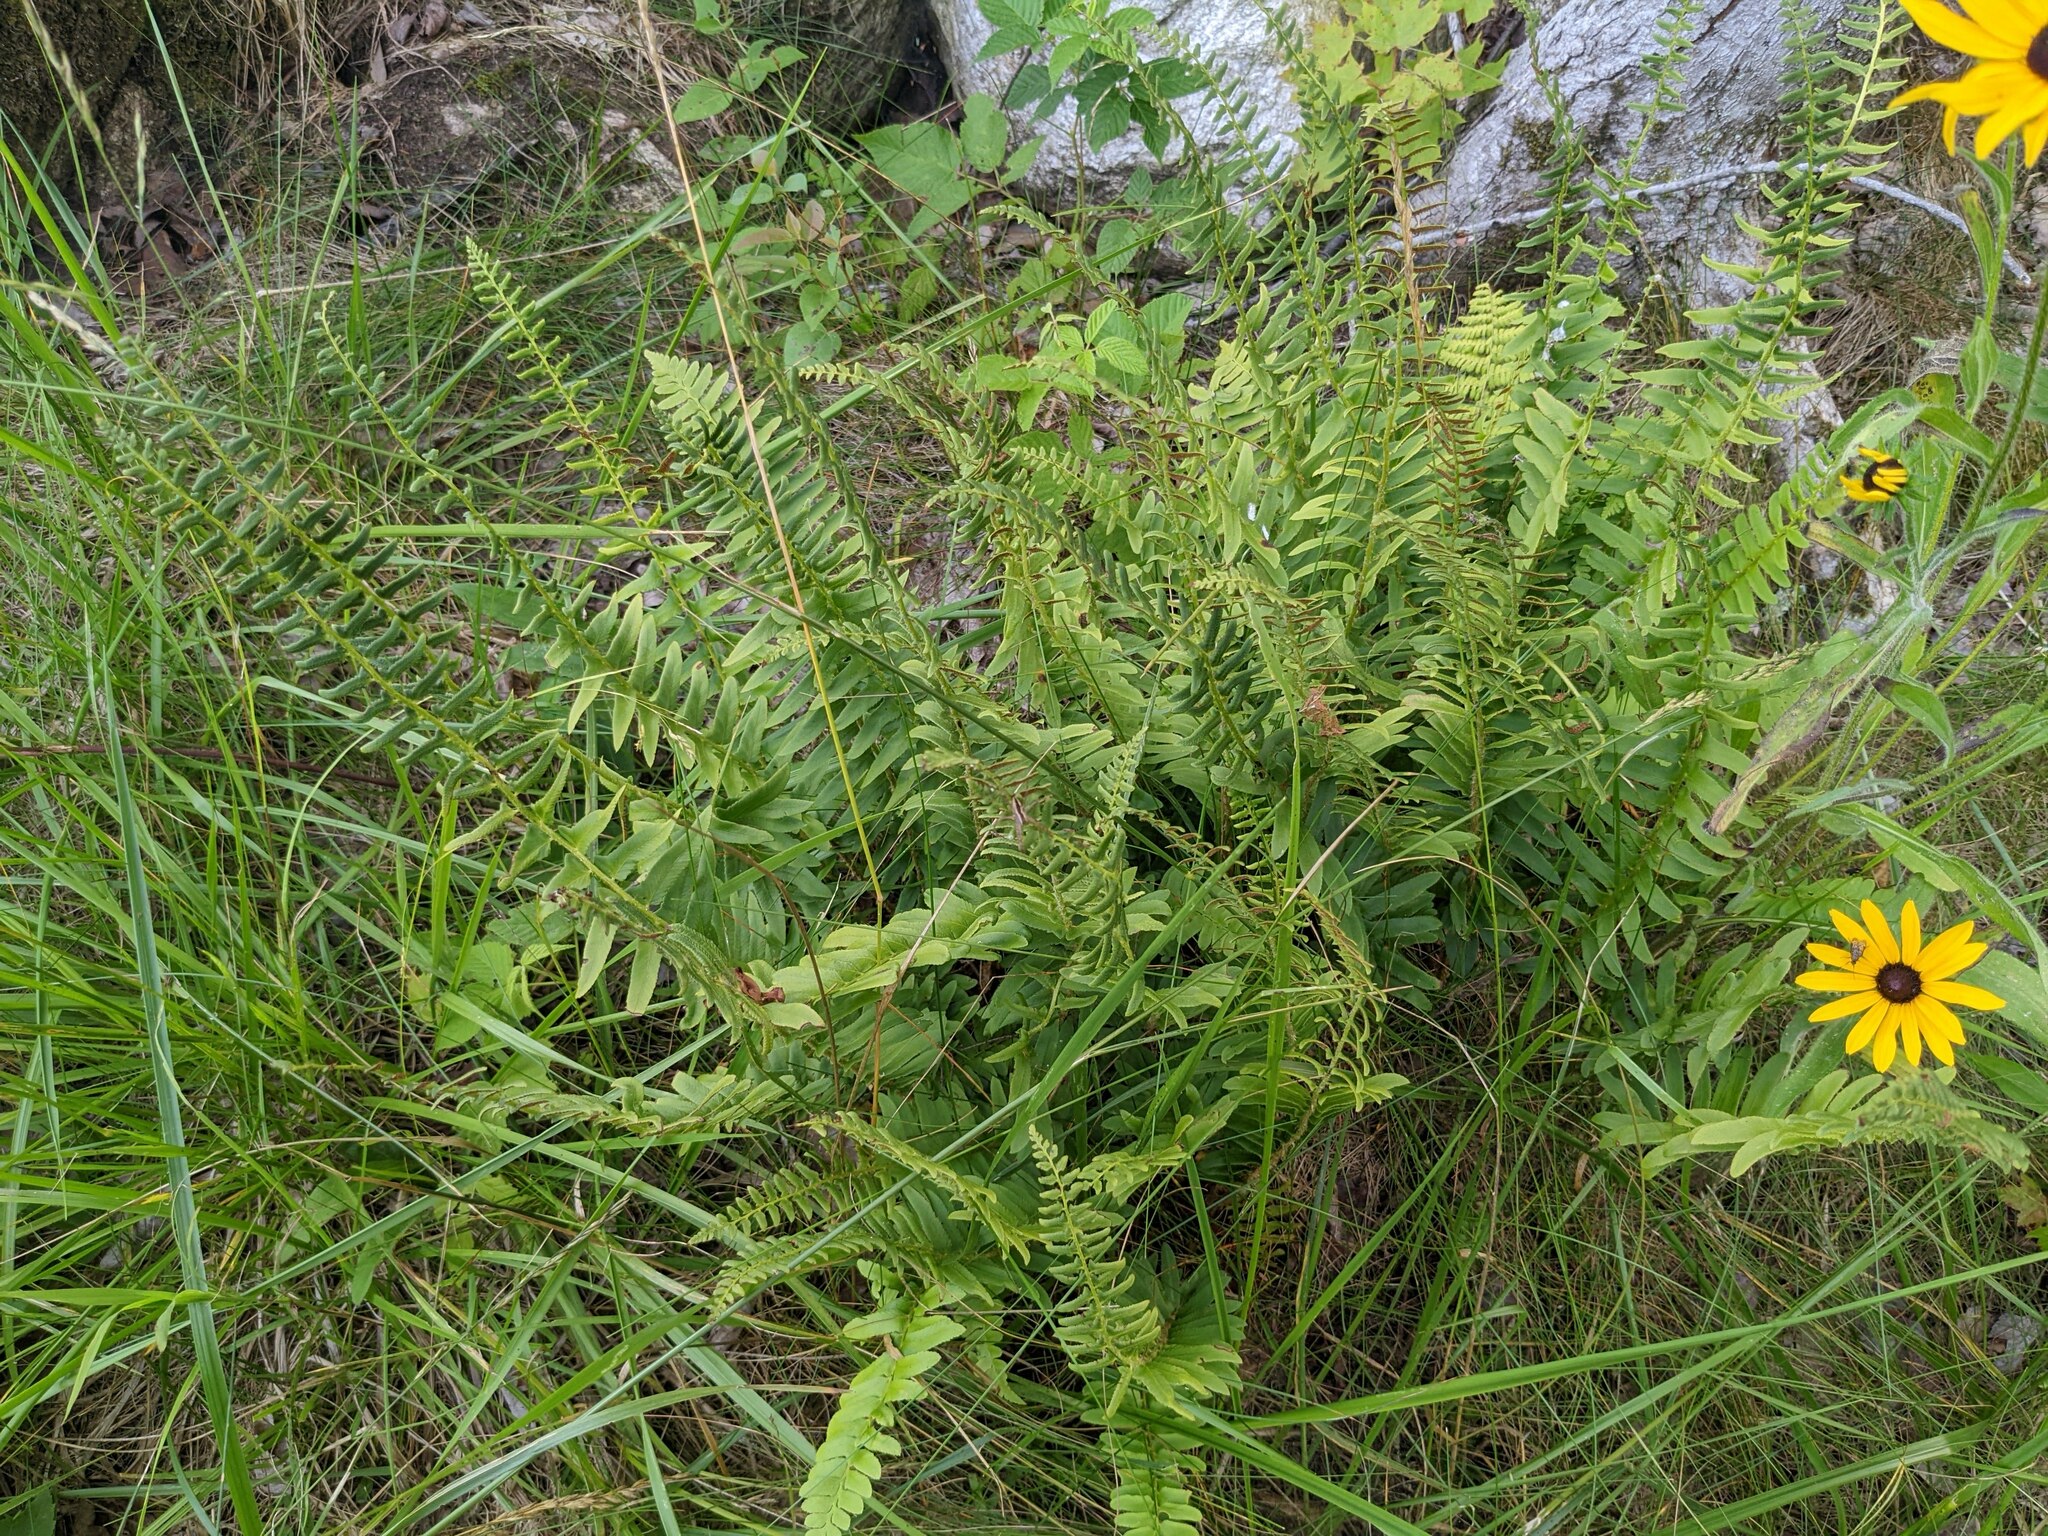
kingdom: Plantae
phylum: Tracheophyta
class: Polypodiopsida
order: Polypodiales
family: Dryopteridaceae
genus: Polystichum
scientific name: Polystichum acrostichoides
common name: Christmas fern
